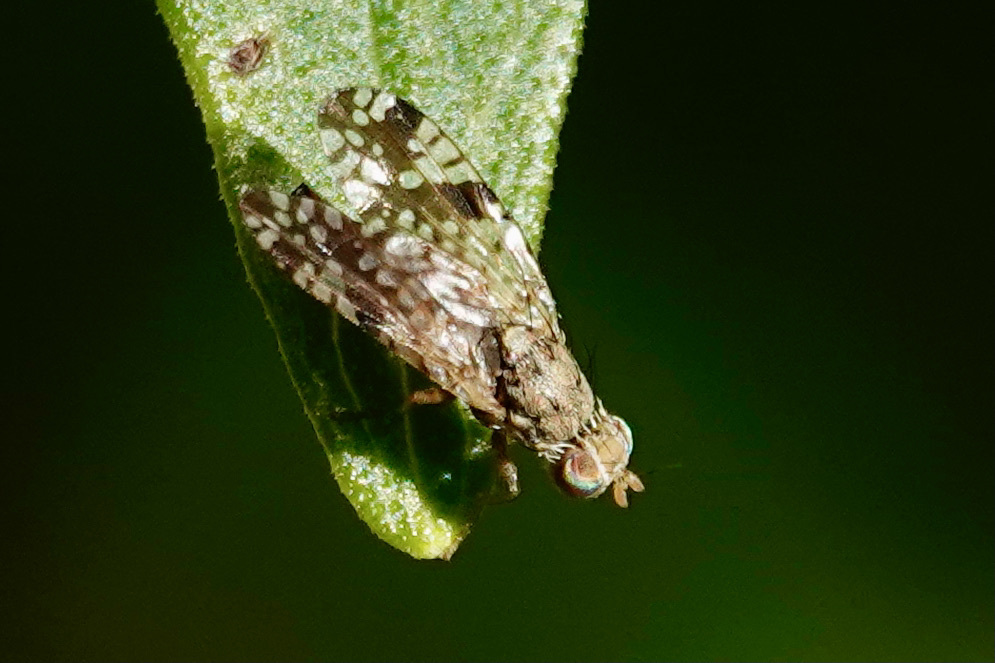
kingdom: Animalia
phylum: Arthropoda
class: Insecta
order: Diptera
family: Tephritidae
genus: Neotephritis
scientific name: Neotephritis finalis
